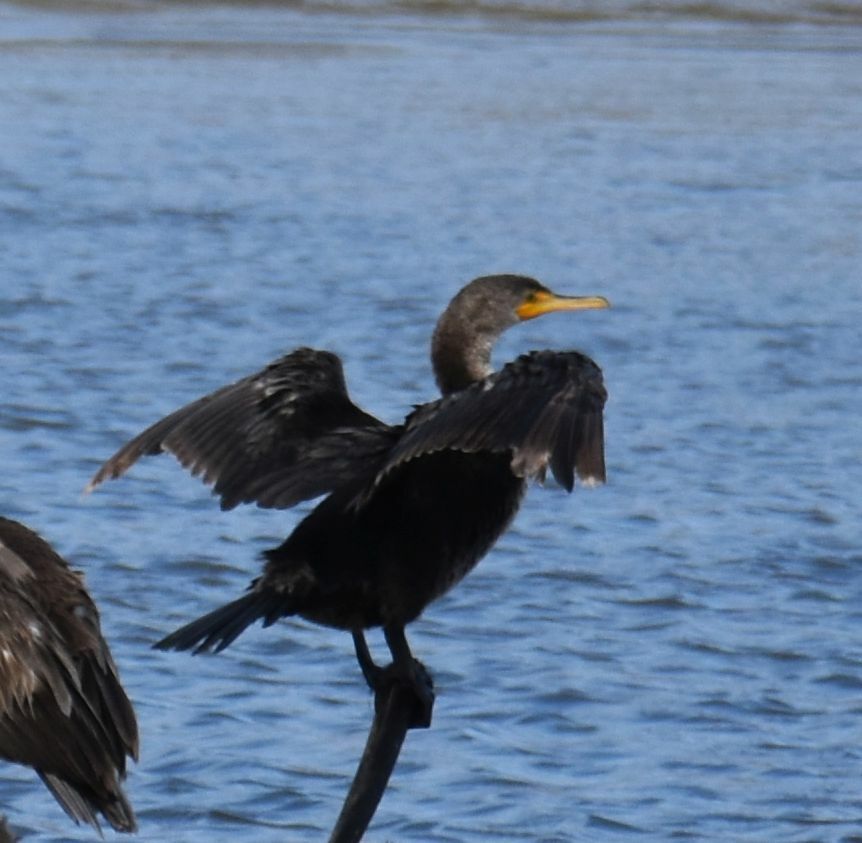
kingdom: Animalia
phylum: Chordata
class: Aves
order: Suliformes
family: Phalacrocoracidae
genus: Phalacrocorax
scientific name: Phalacrocorax auritus
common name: Double-crested cormorant
